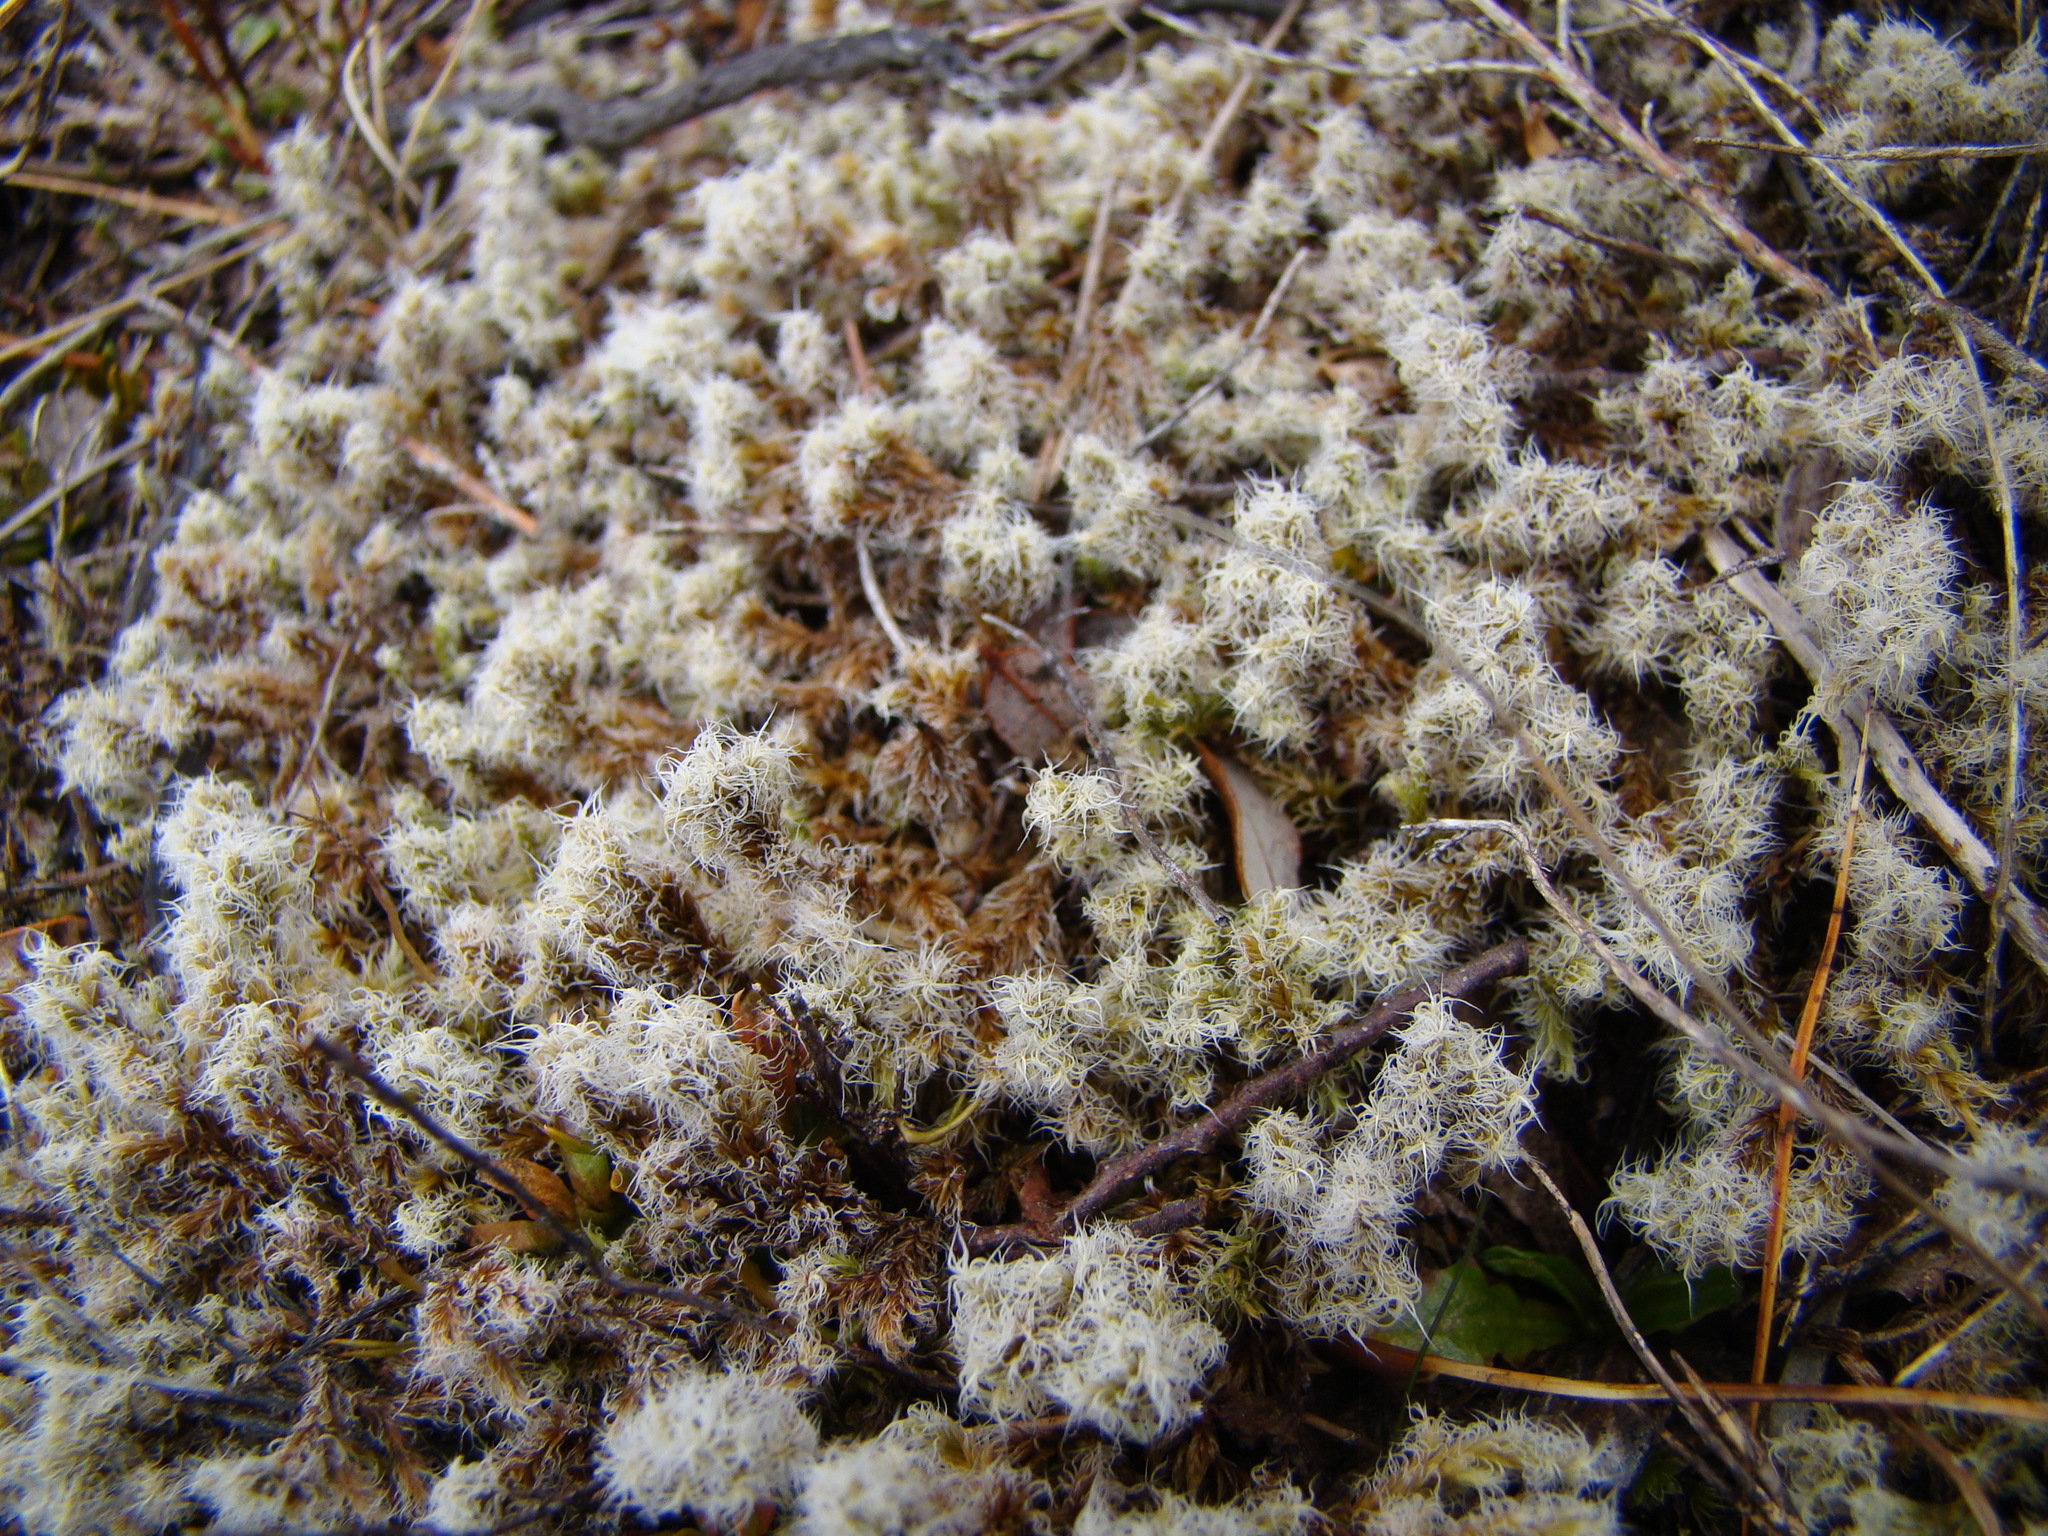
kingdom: Plantae
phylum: Bryophyta
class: Bryopsida
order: Grimmiales
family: Grimmiaceae
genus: Racomitrium
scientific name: Racomitrium lanuginosum
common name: Hoary rock moss
